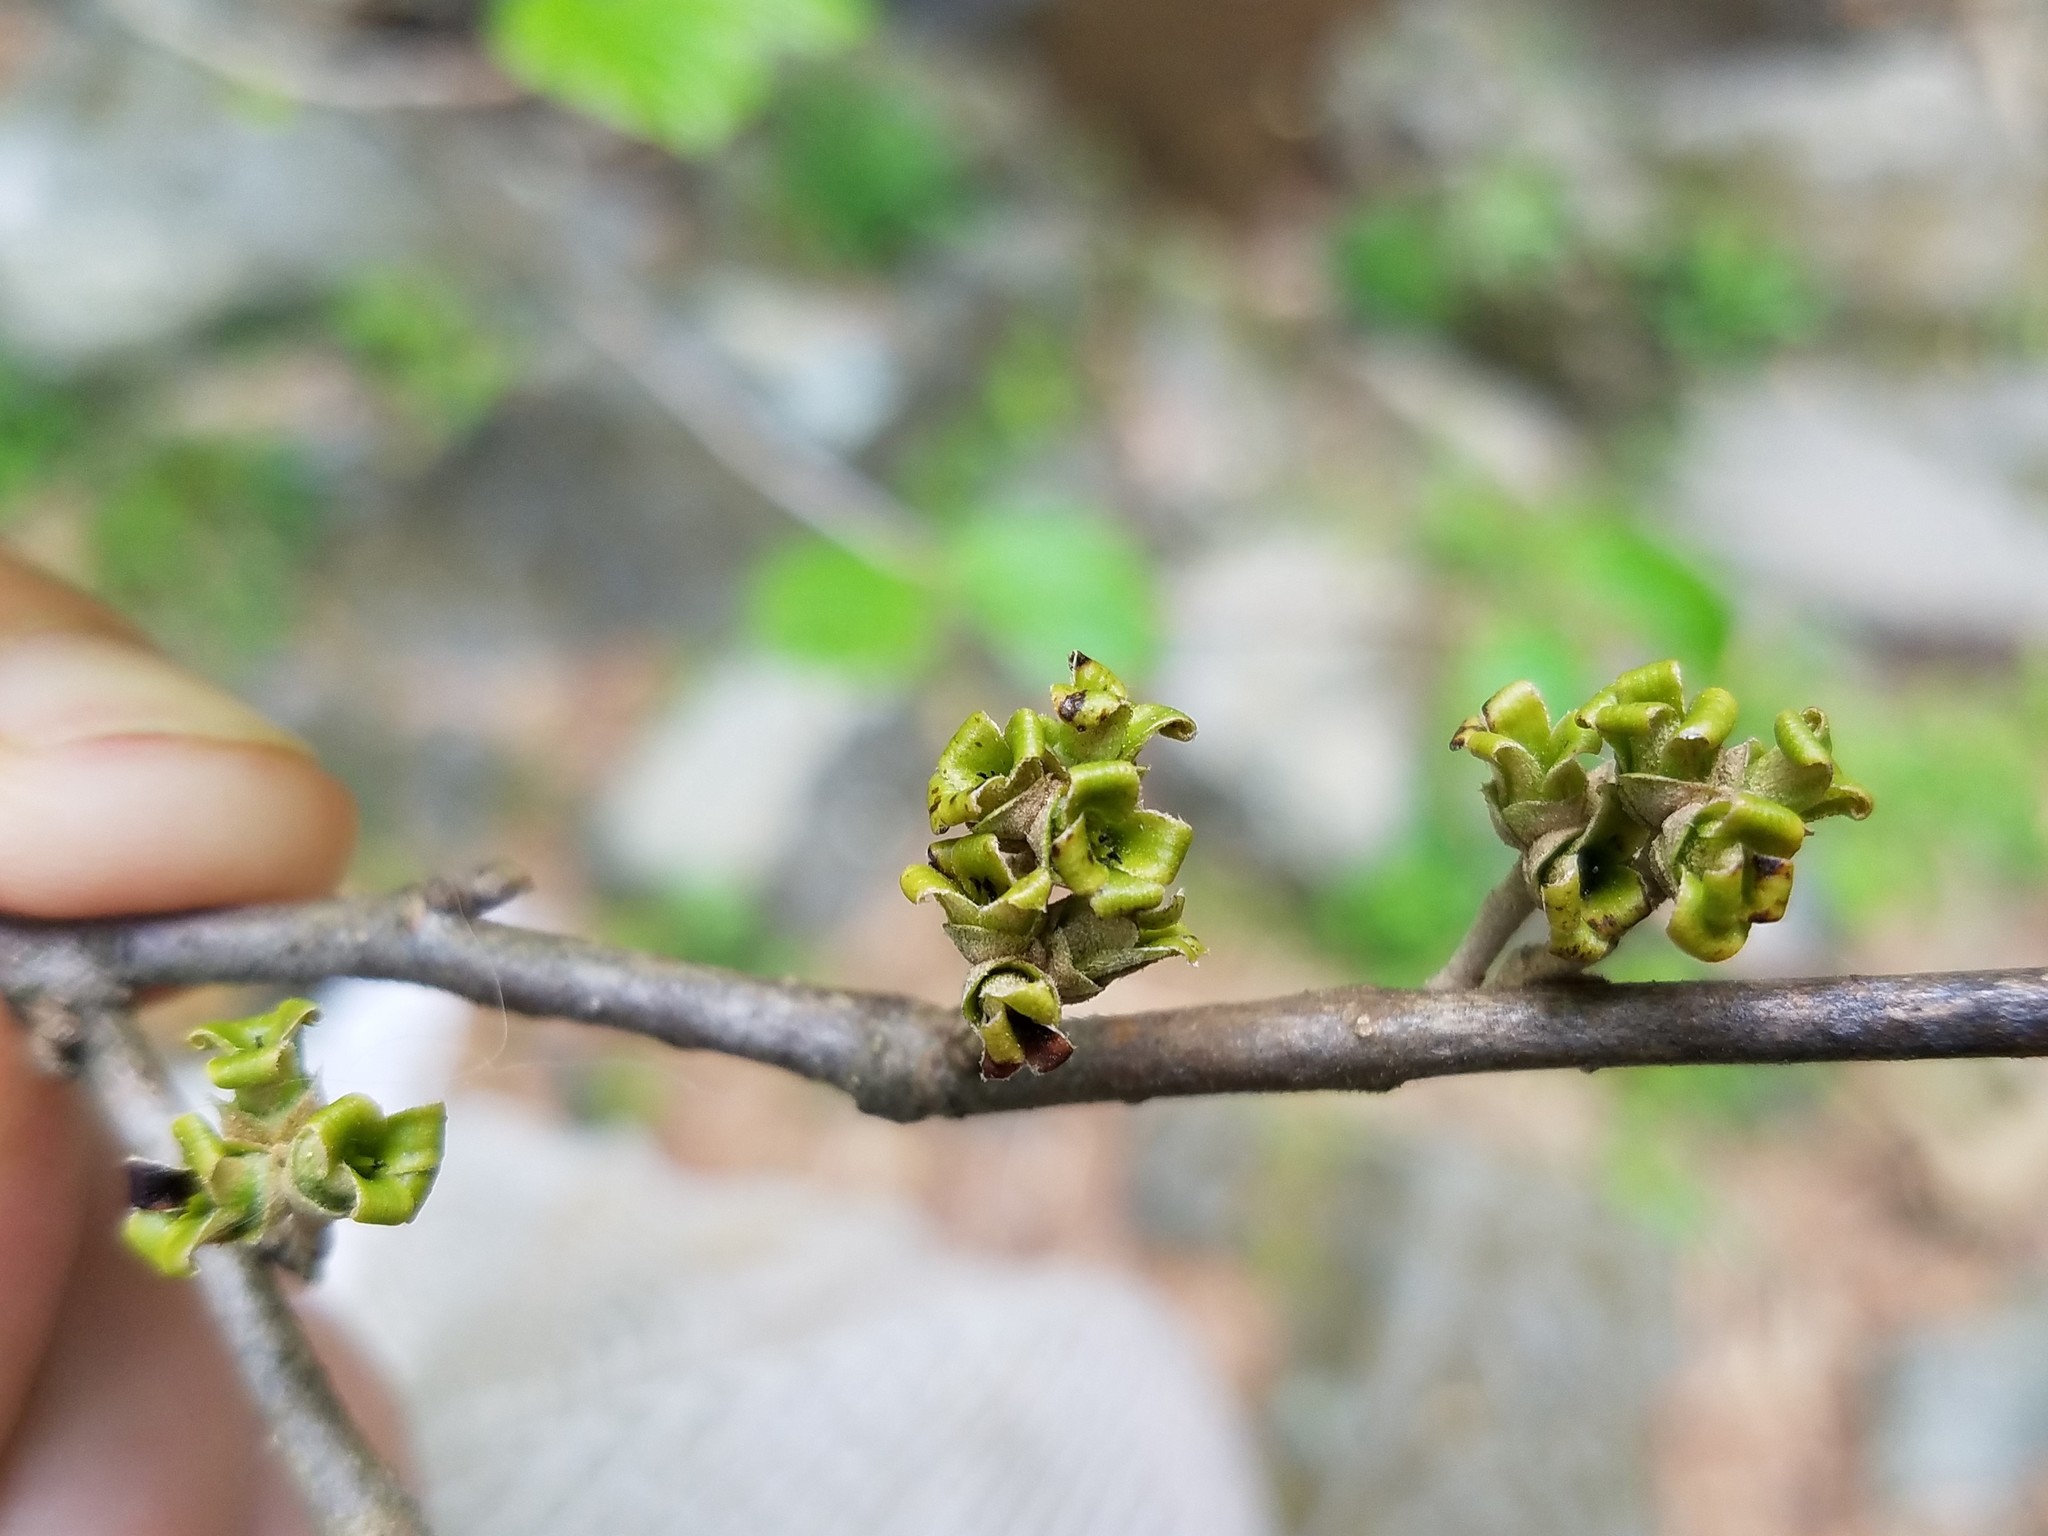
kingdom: Plantae
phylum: Tracheophyta
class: Magnoliopsida
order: Saxifragales
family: Hamamelidaceae
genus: Hamamelis
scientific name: Hamamelis virginiana
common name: Witch-hazel
